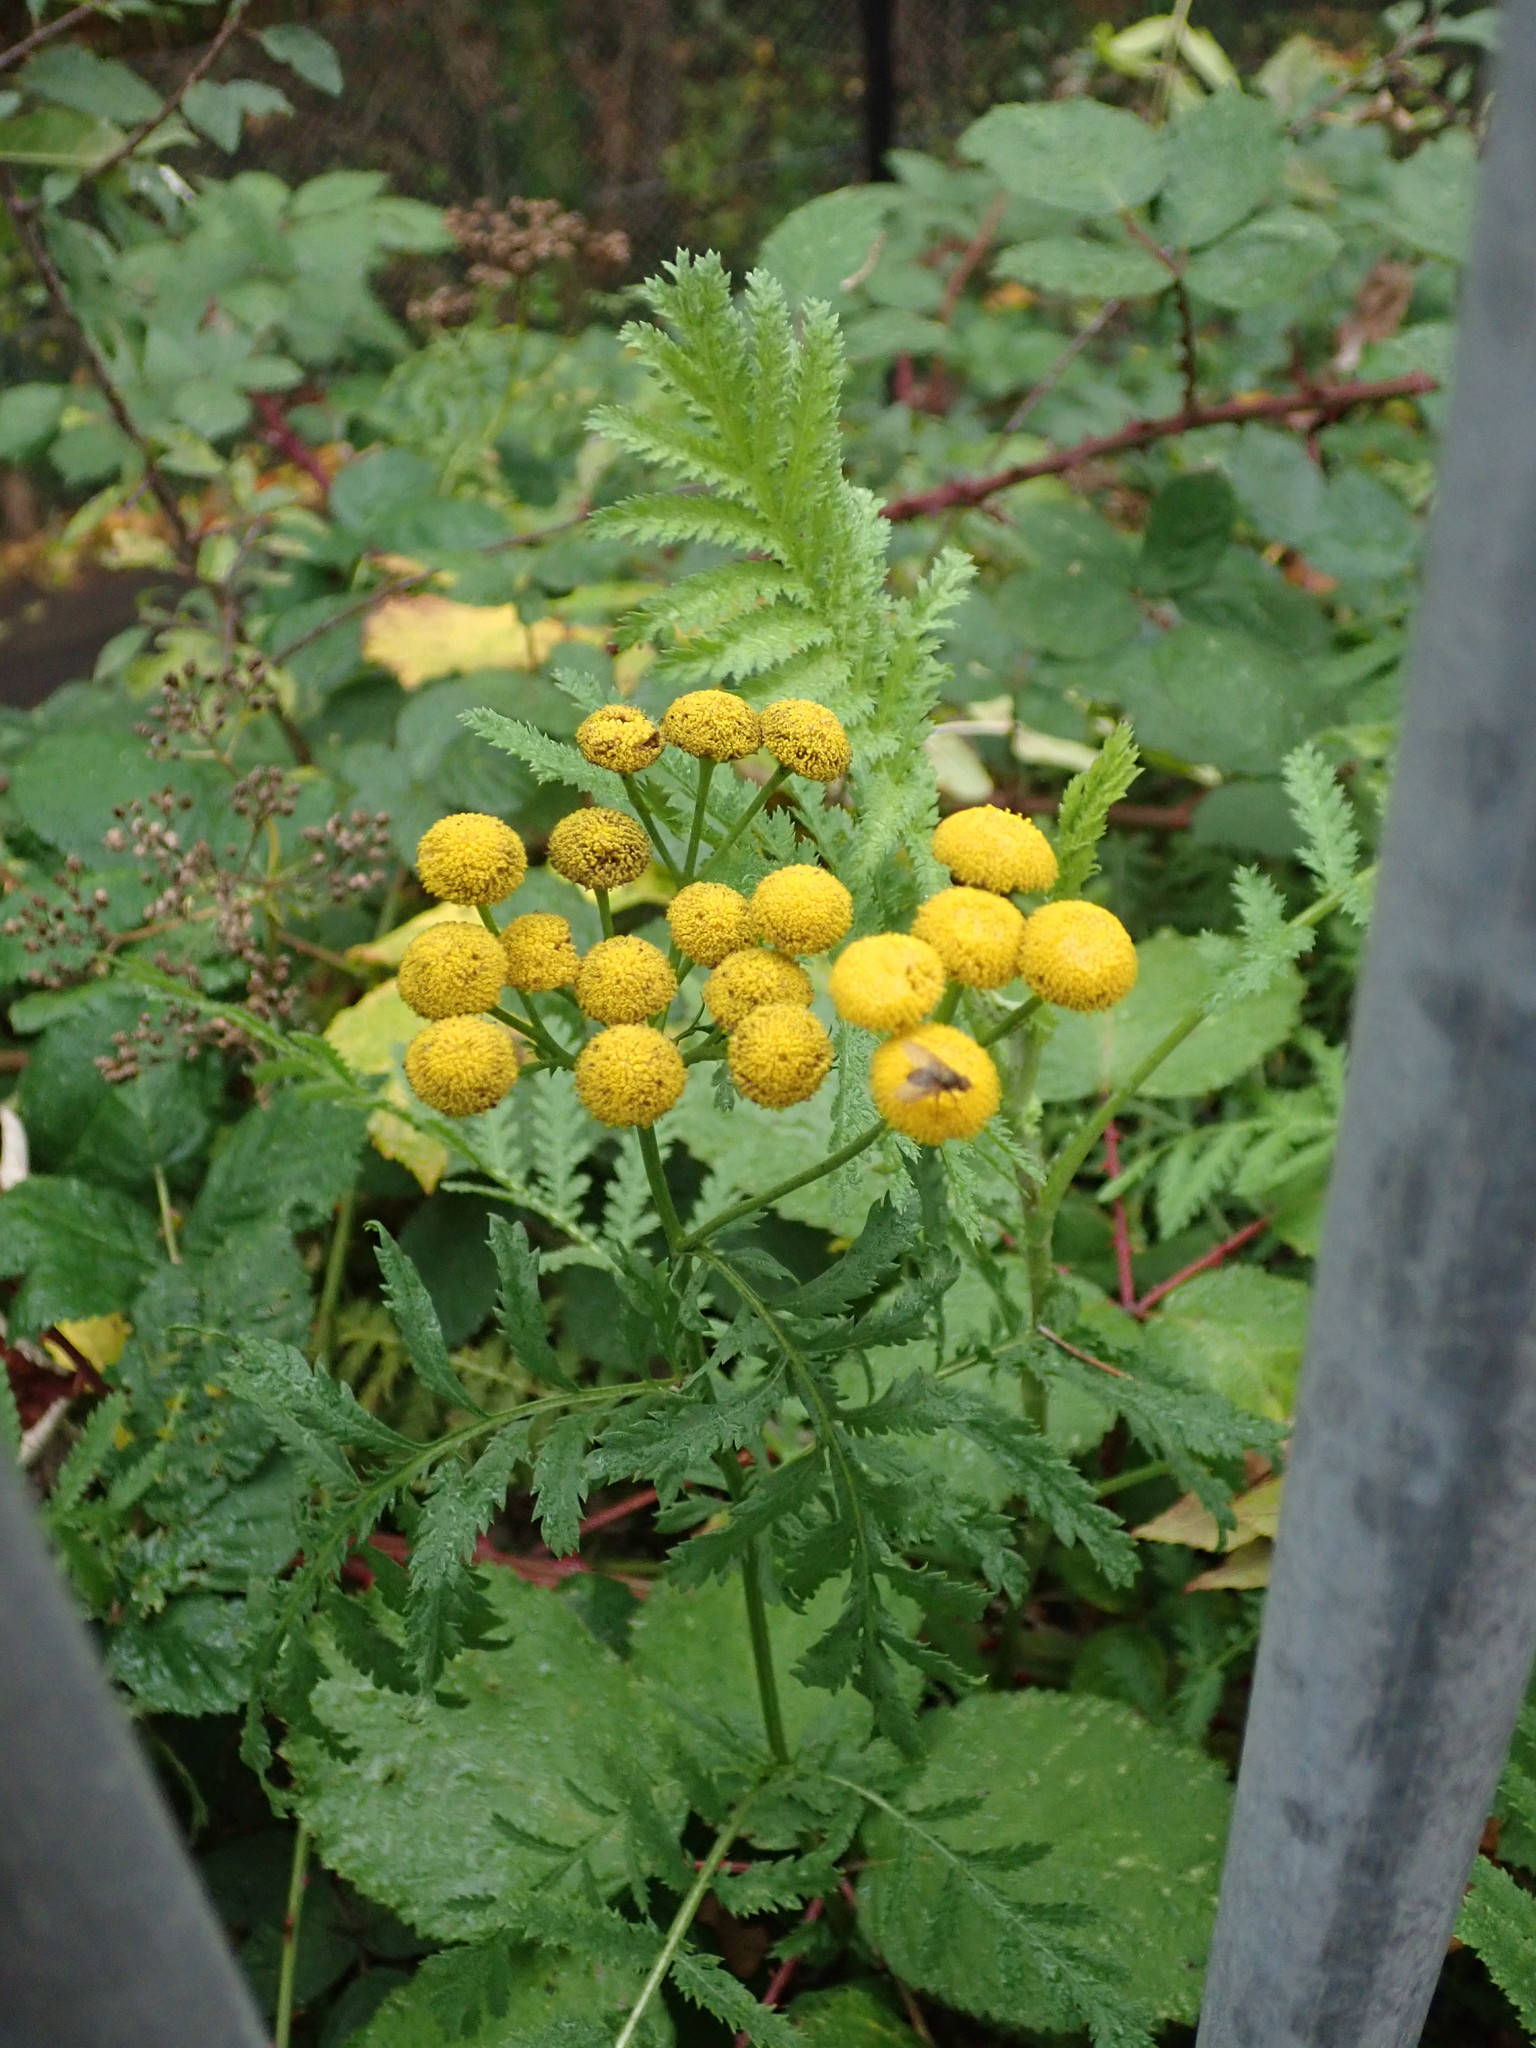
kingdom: Plantae
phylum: Tracheophyta
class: Magnoliopsida
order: Asterales
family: Asteraceae
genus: Tanacetum
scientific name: Tanacetum vulgare
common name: Common tansy
